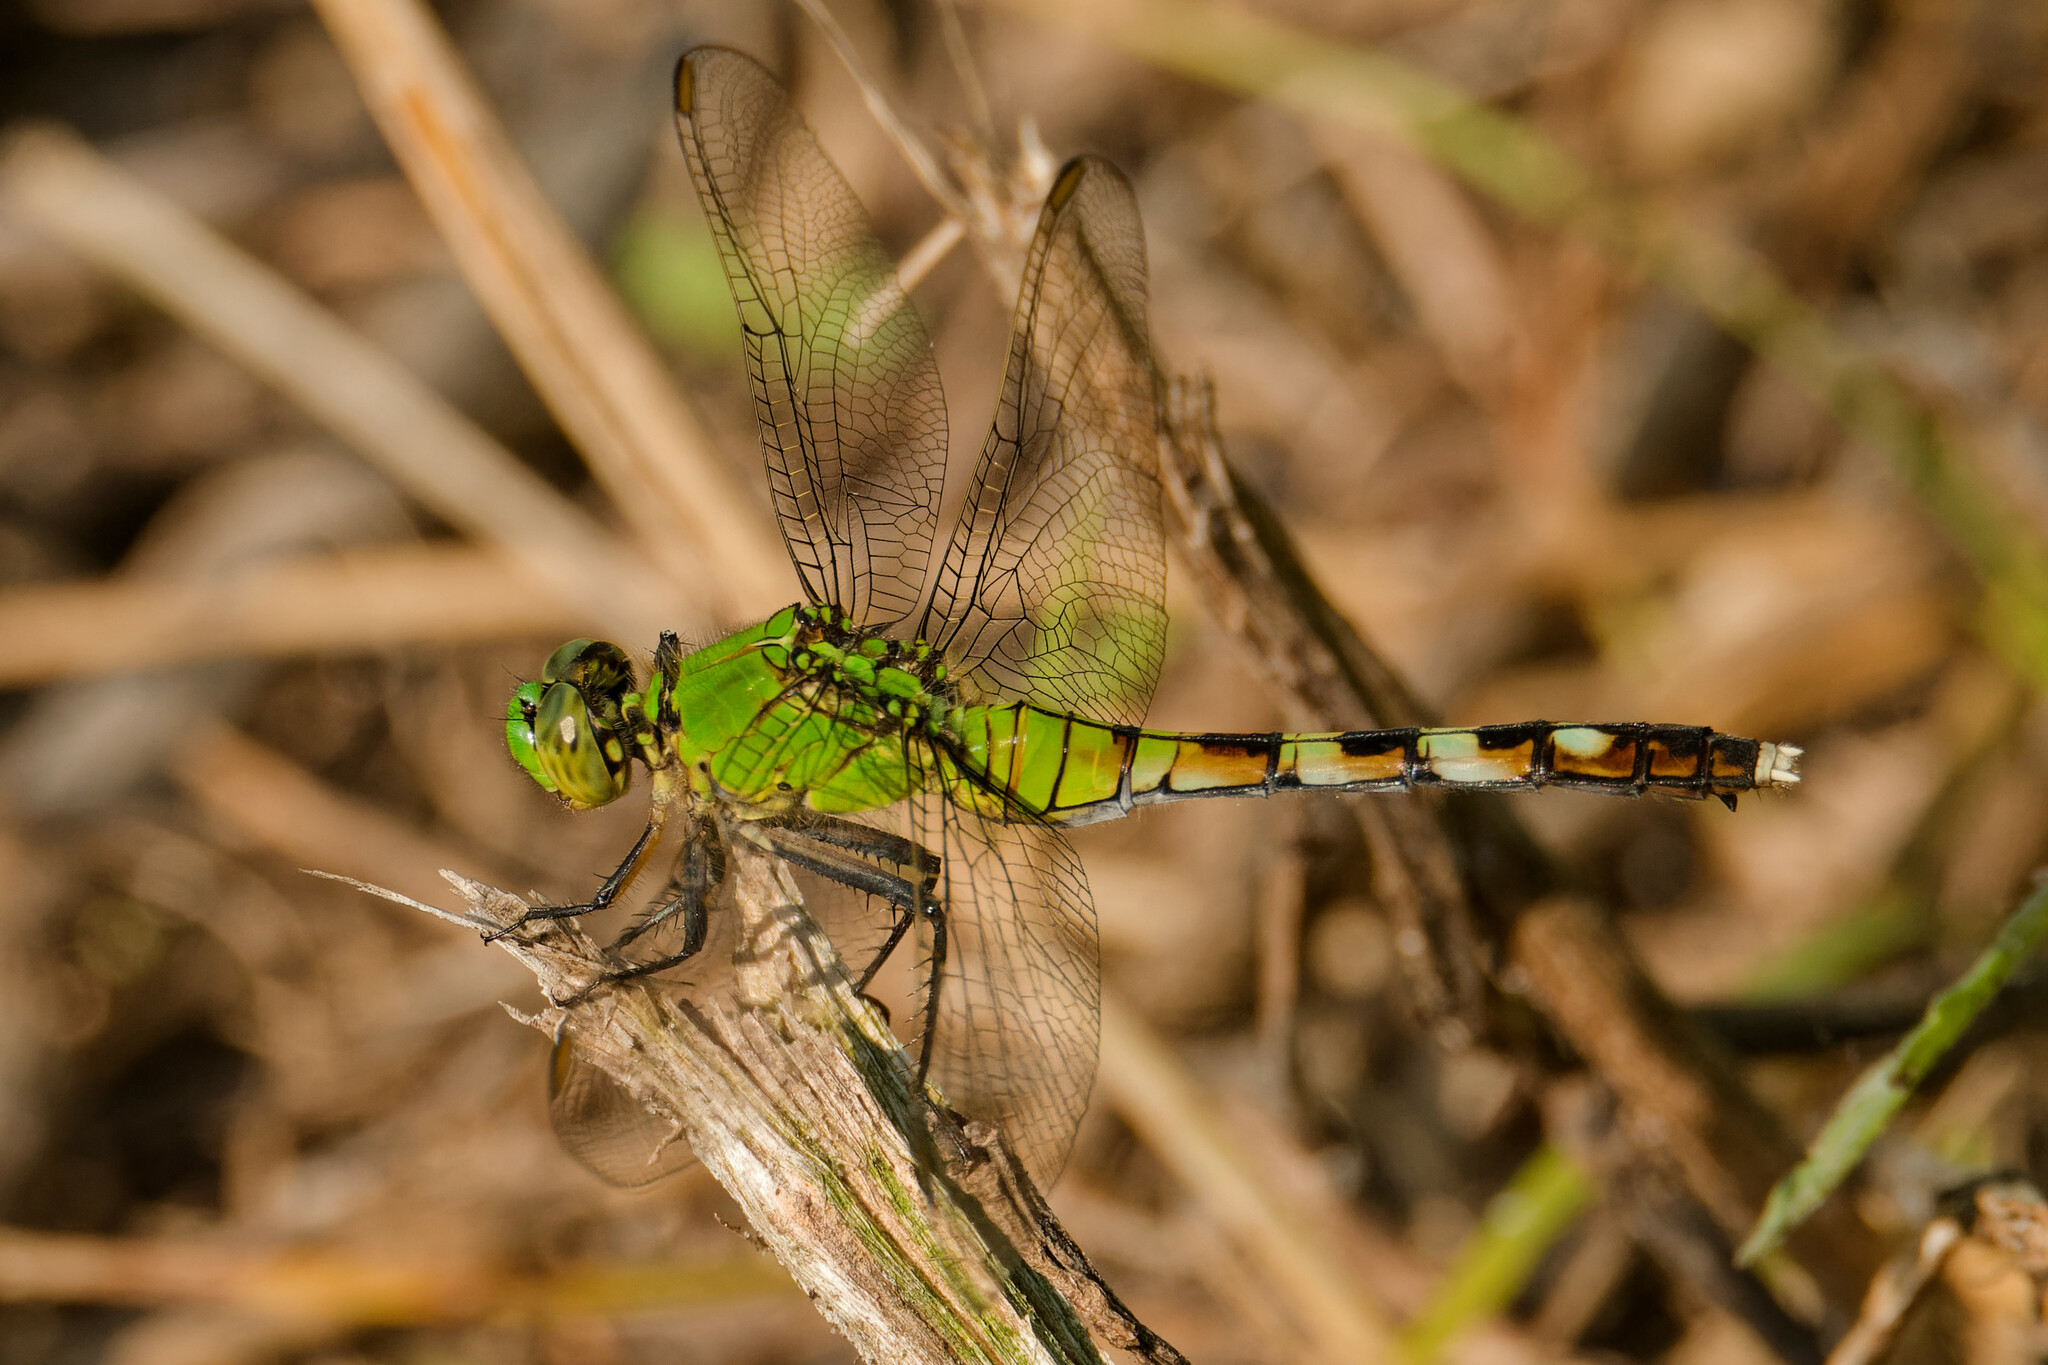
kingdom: Animalia
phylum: Arthropoda
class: Insecta
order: Odonata
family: Libellulidae
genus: Erythemis
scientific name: Erythemis simplicicollis
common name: Eastern pondhawk
